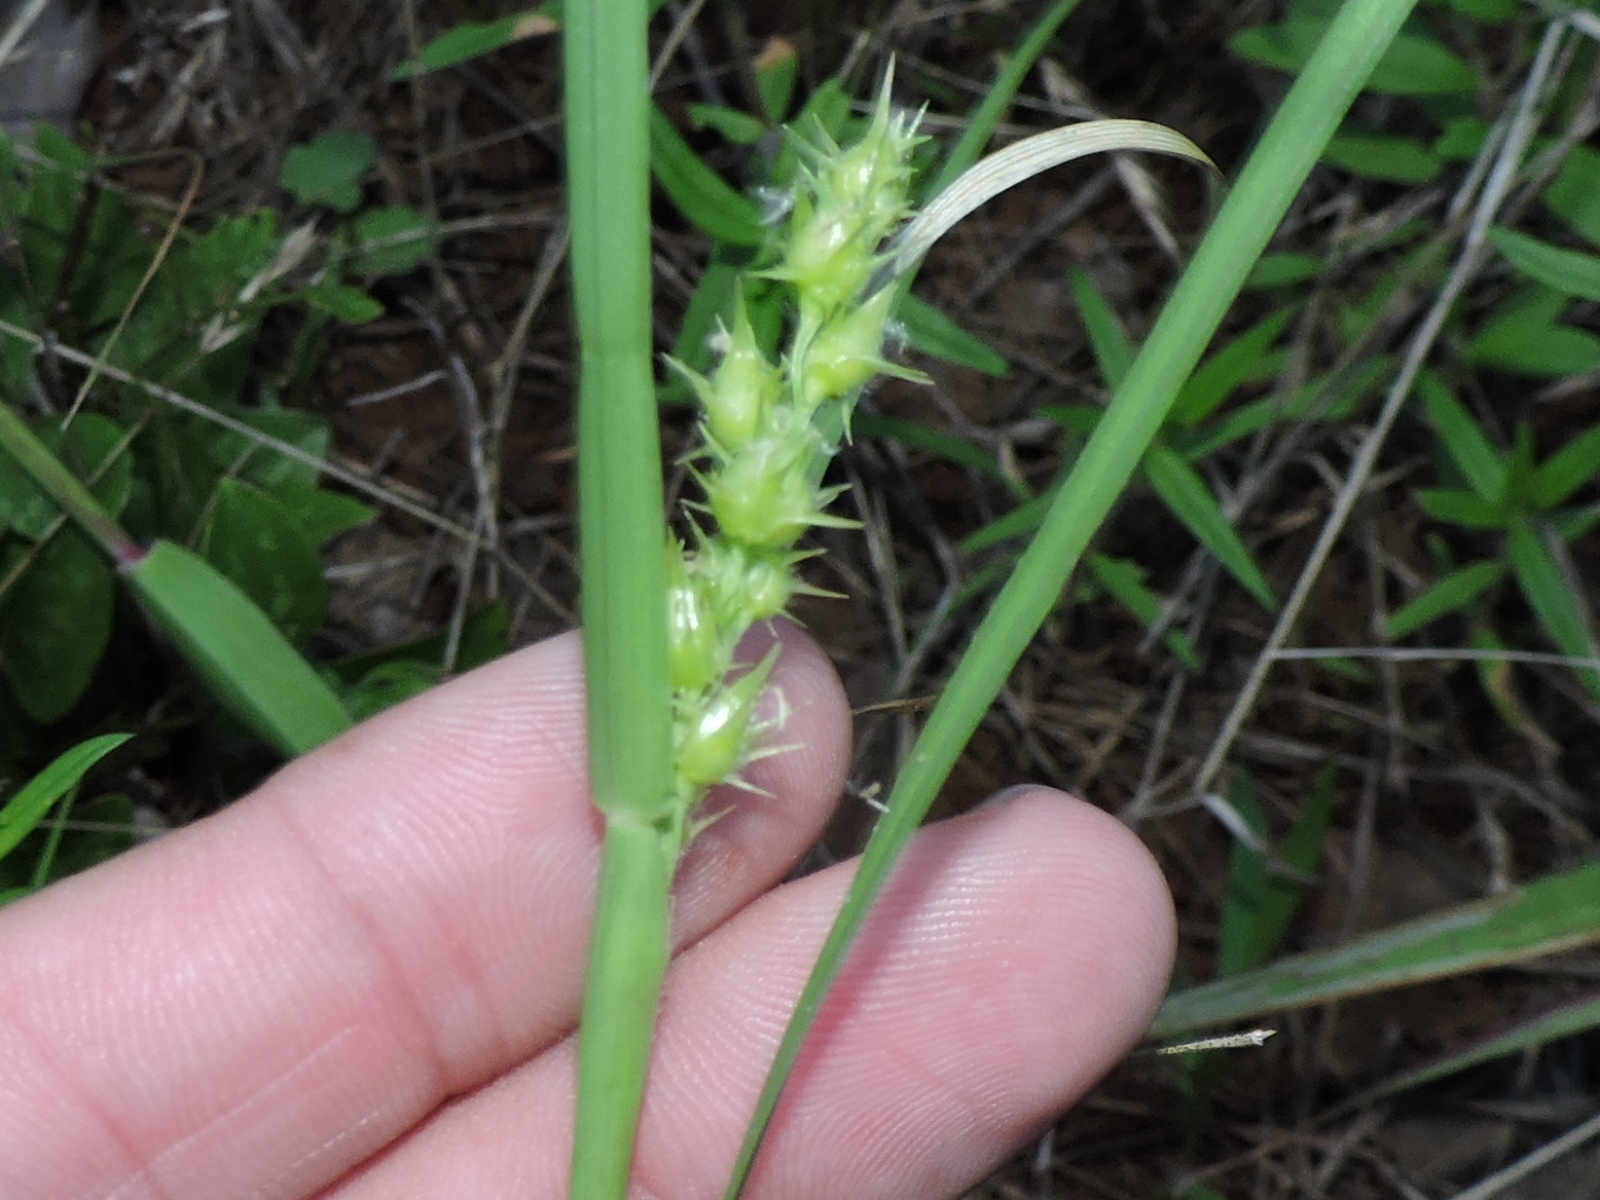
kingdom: Plantae
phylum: Tracheophyta
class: Liliopsida
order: Poales
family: Poaceae
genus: Cenchrus
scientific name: Cenchrus spinifex
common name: Coast sandbur
